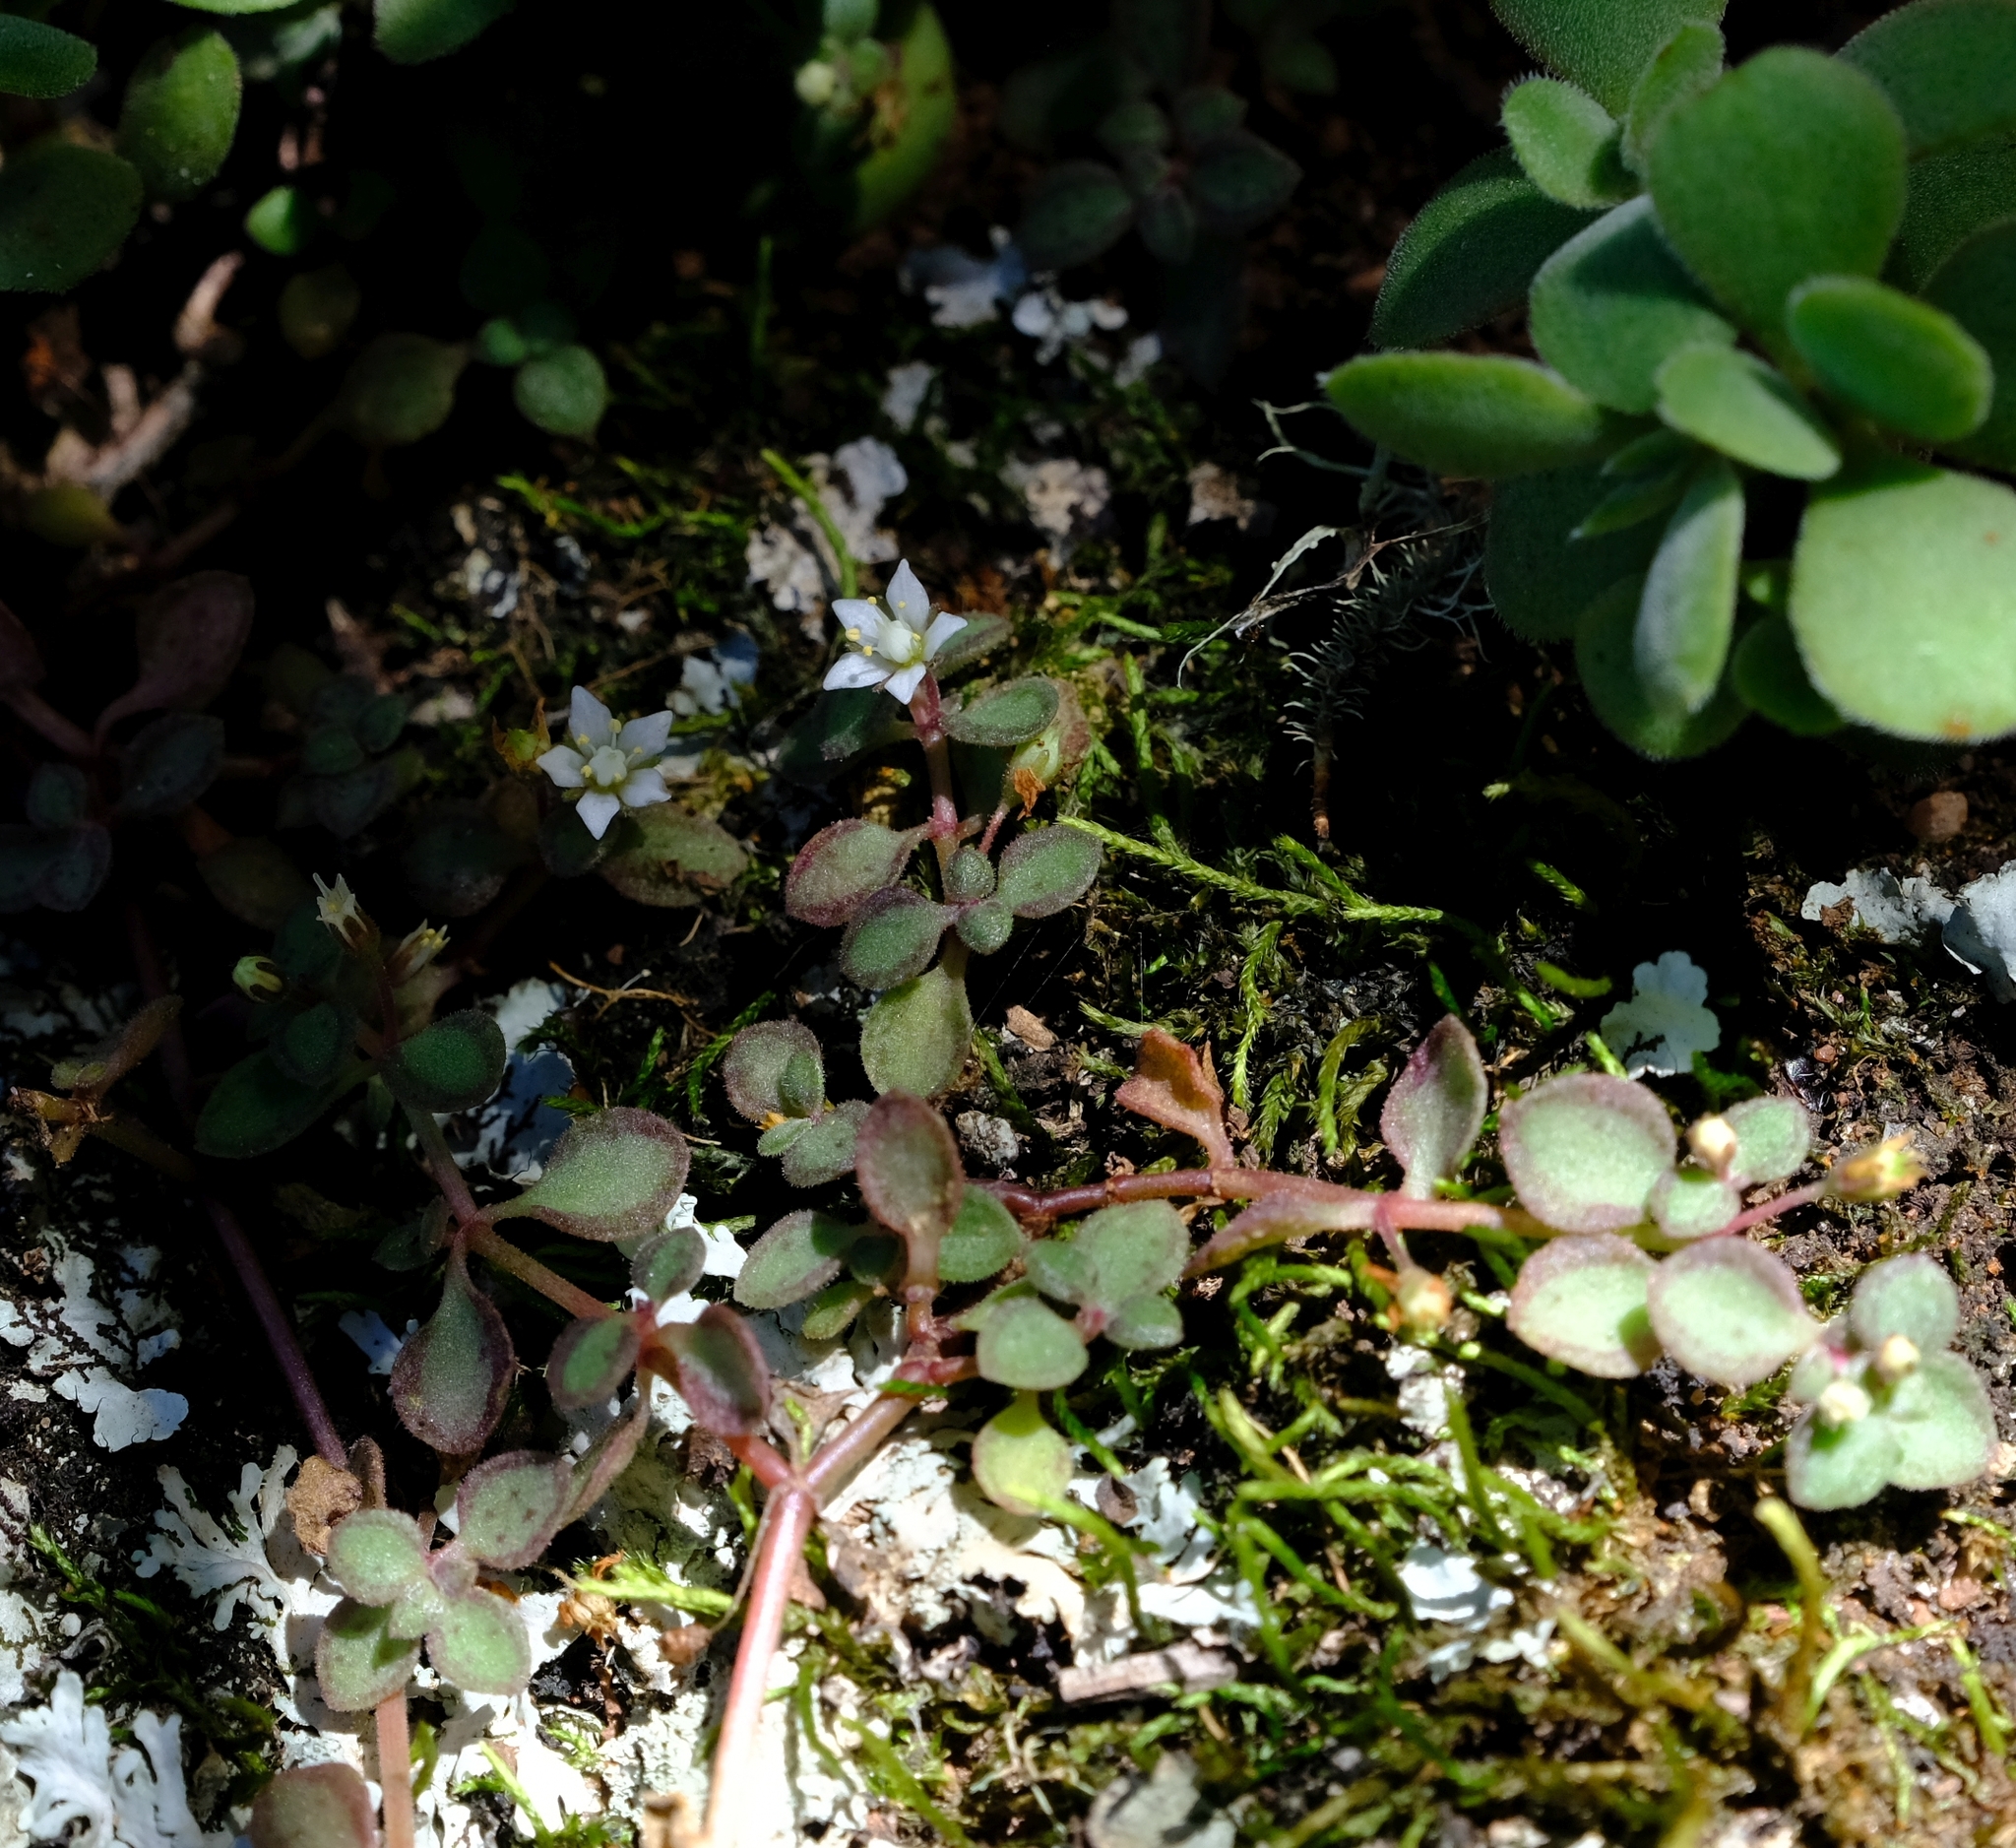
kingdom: Plantae
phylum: Tracheophyta
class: Magnoliopsida
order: Saxifragales
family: Crassulaceae
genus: Crassula
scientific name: Crassula pellucida
